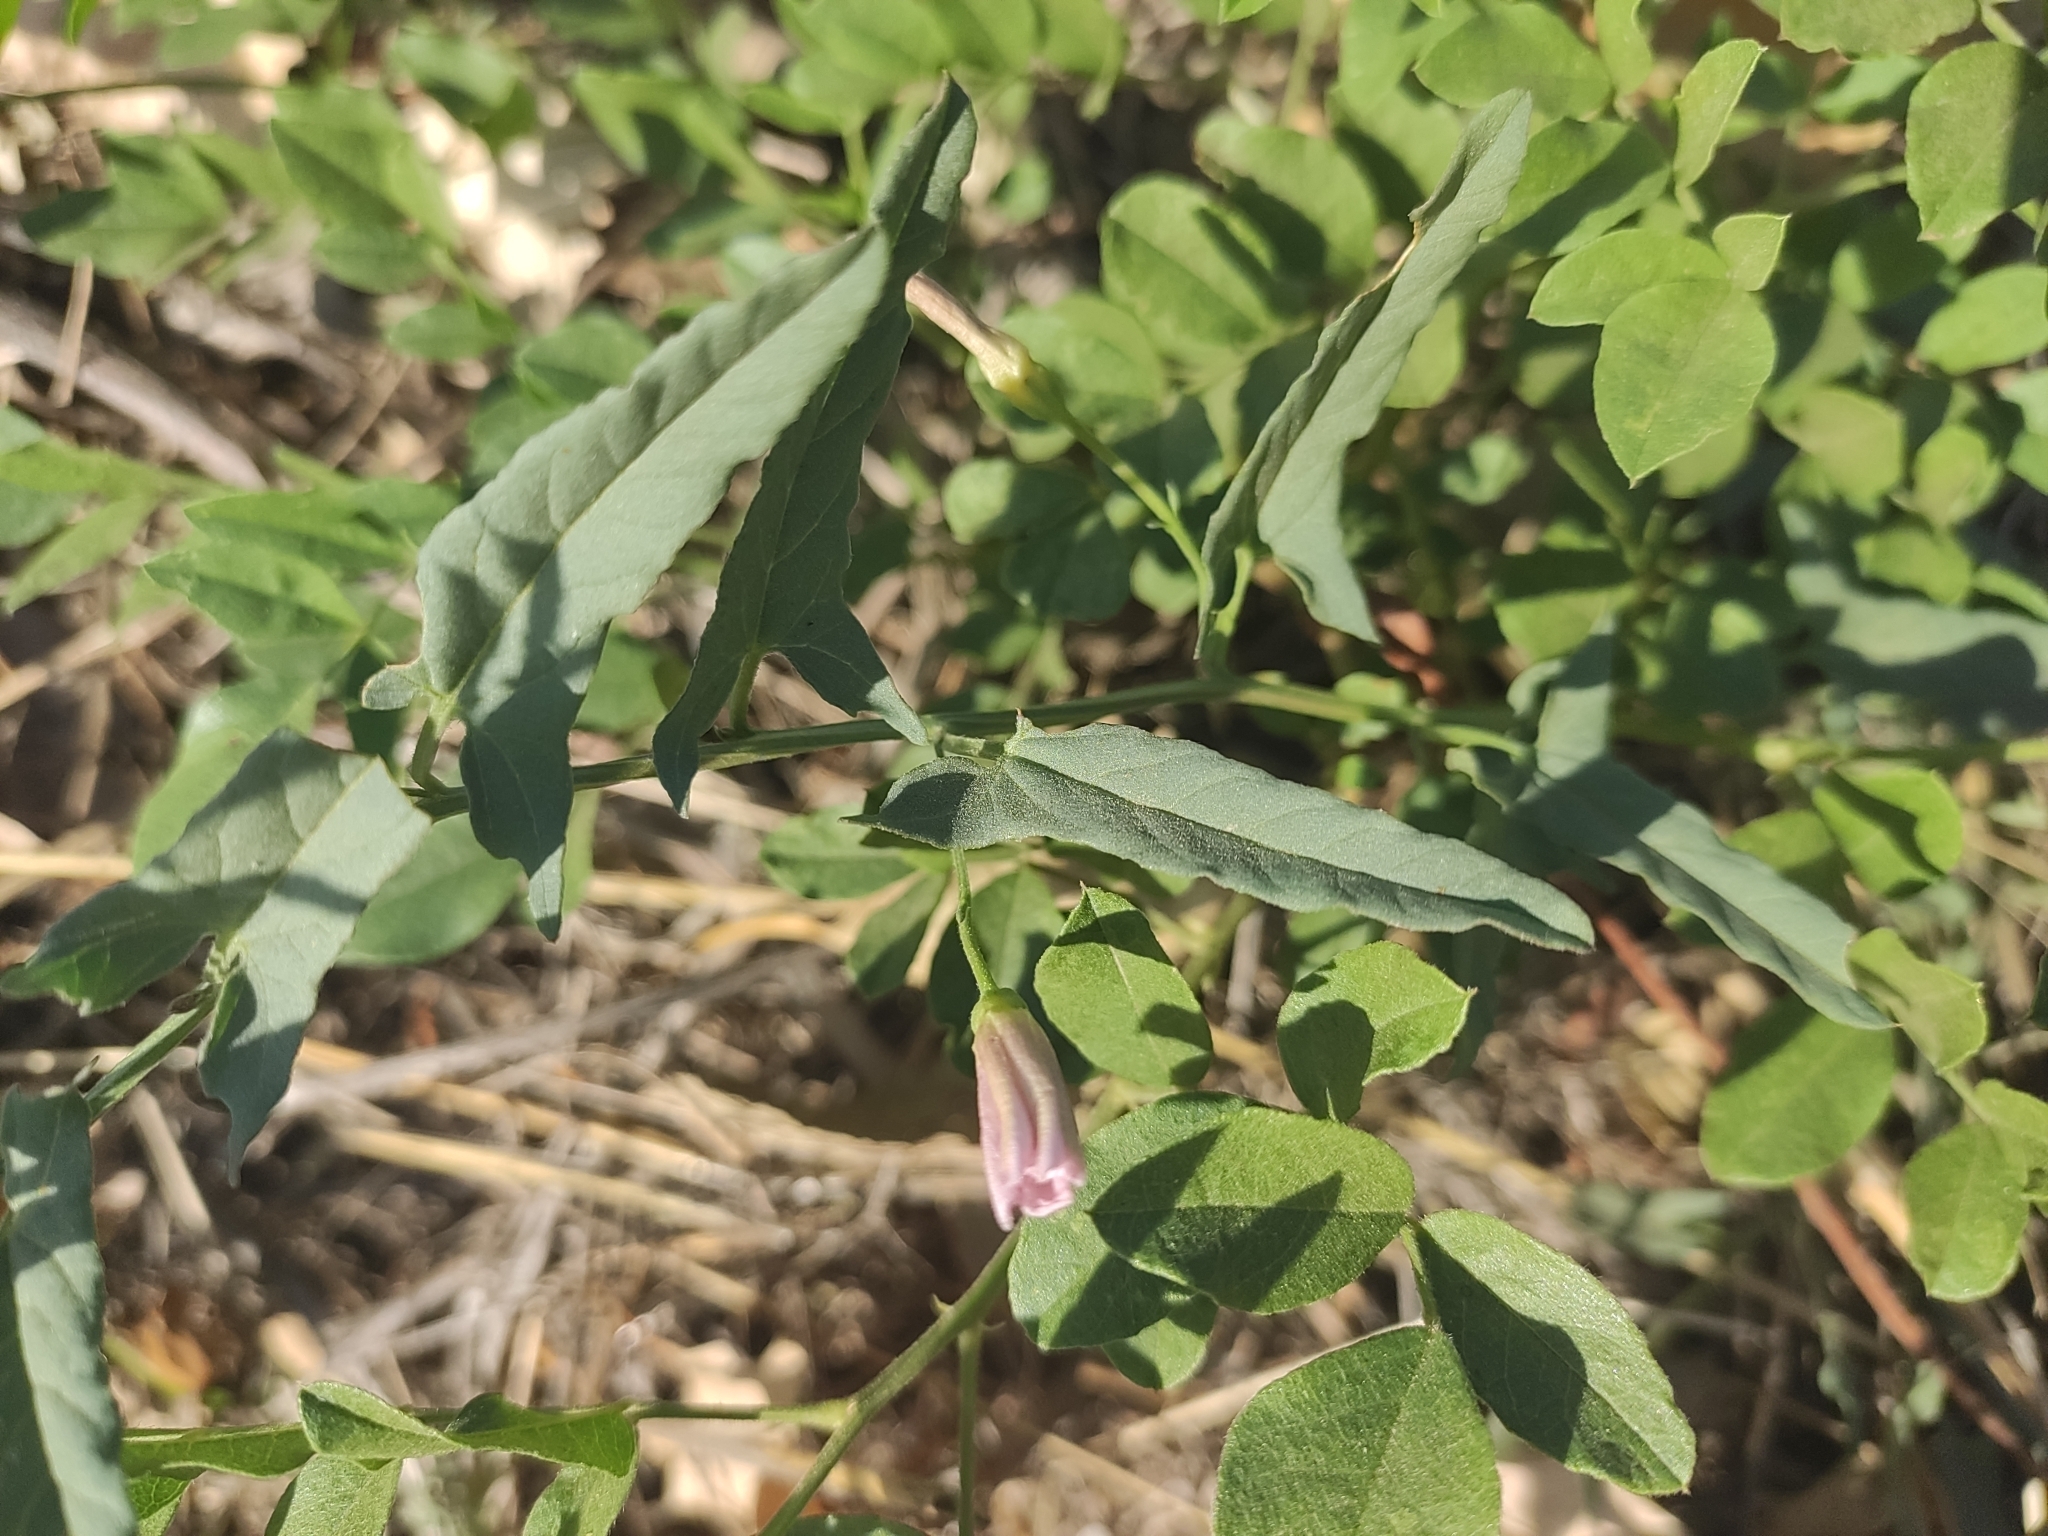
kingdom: Plantae
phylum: Tracheophyta
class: Magnoliopsida
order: Solanales
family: Convolvulaceae
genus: Convolvulus
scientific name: Convolvulus arvensis
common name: Field bindweed
